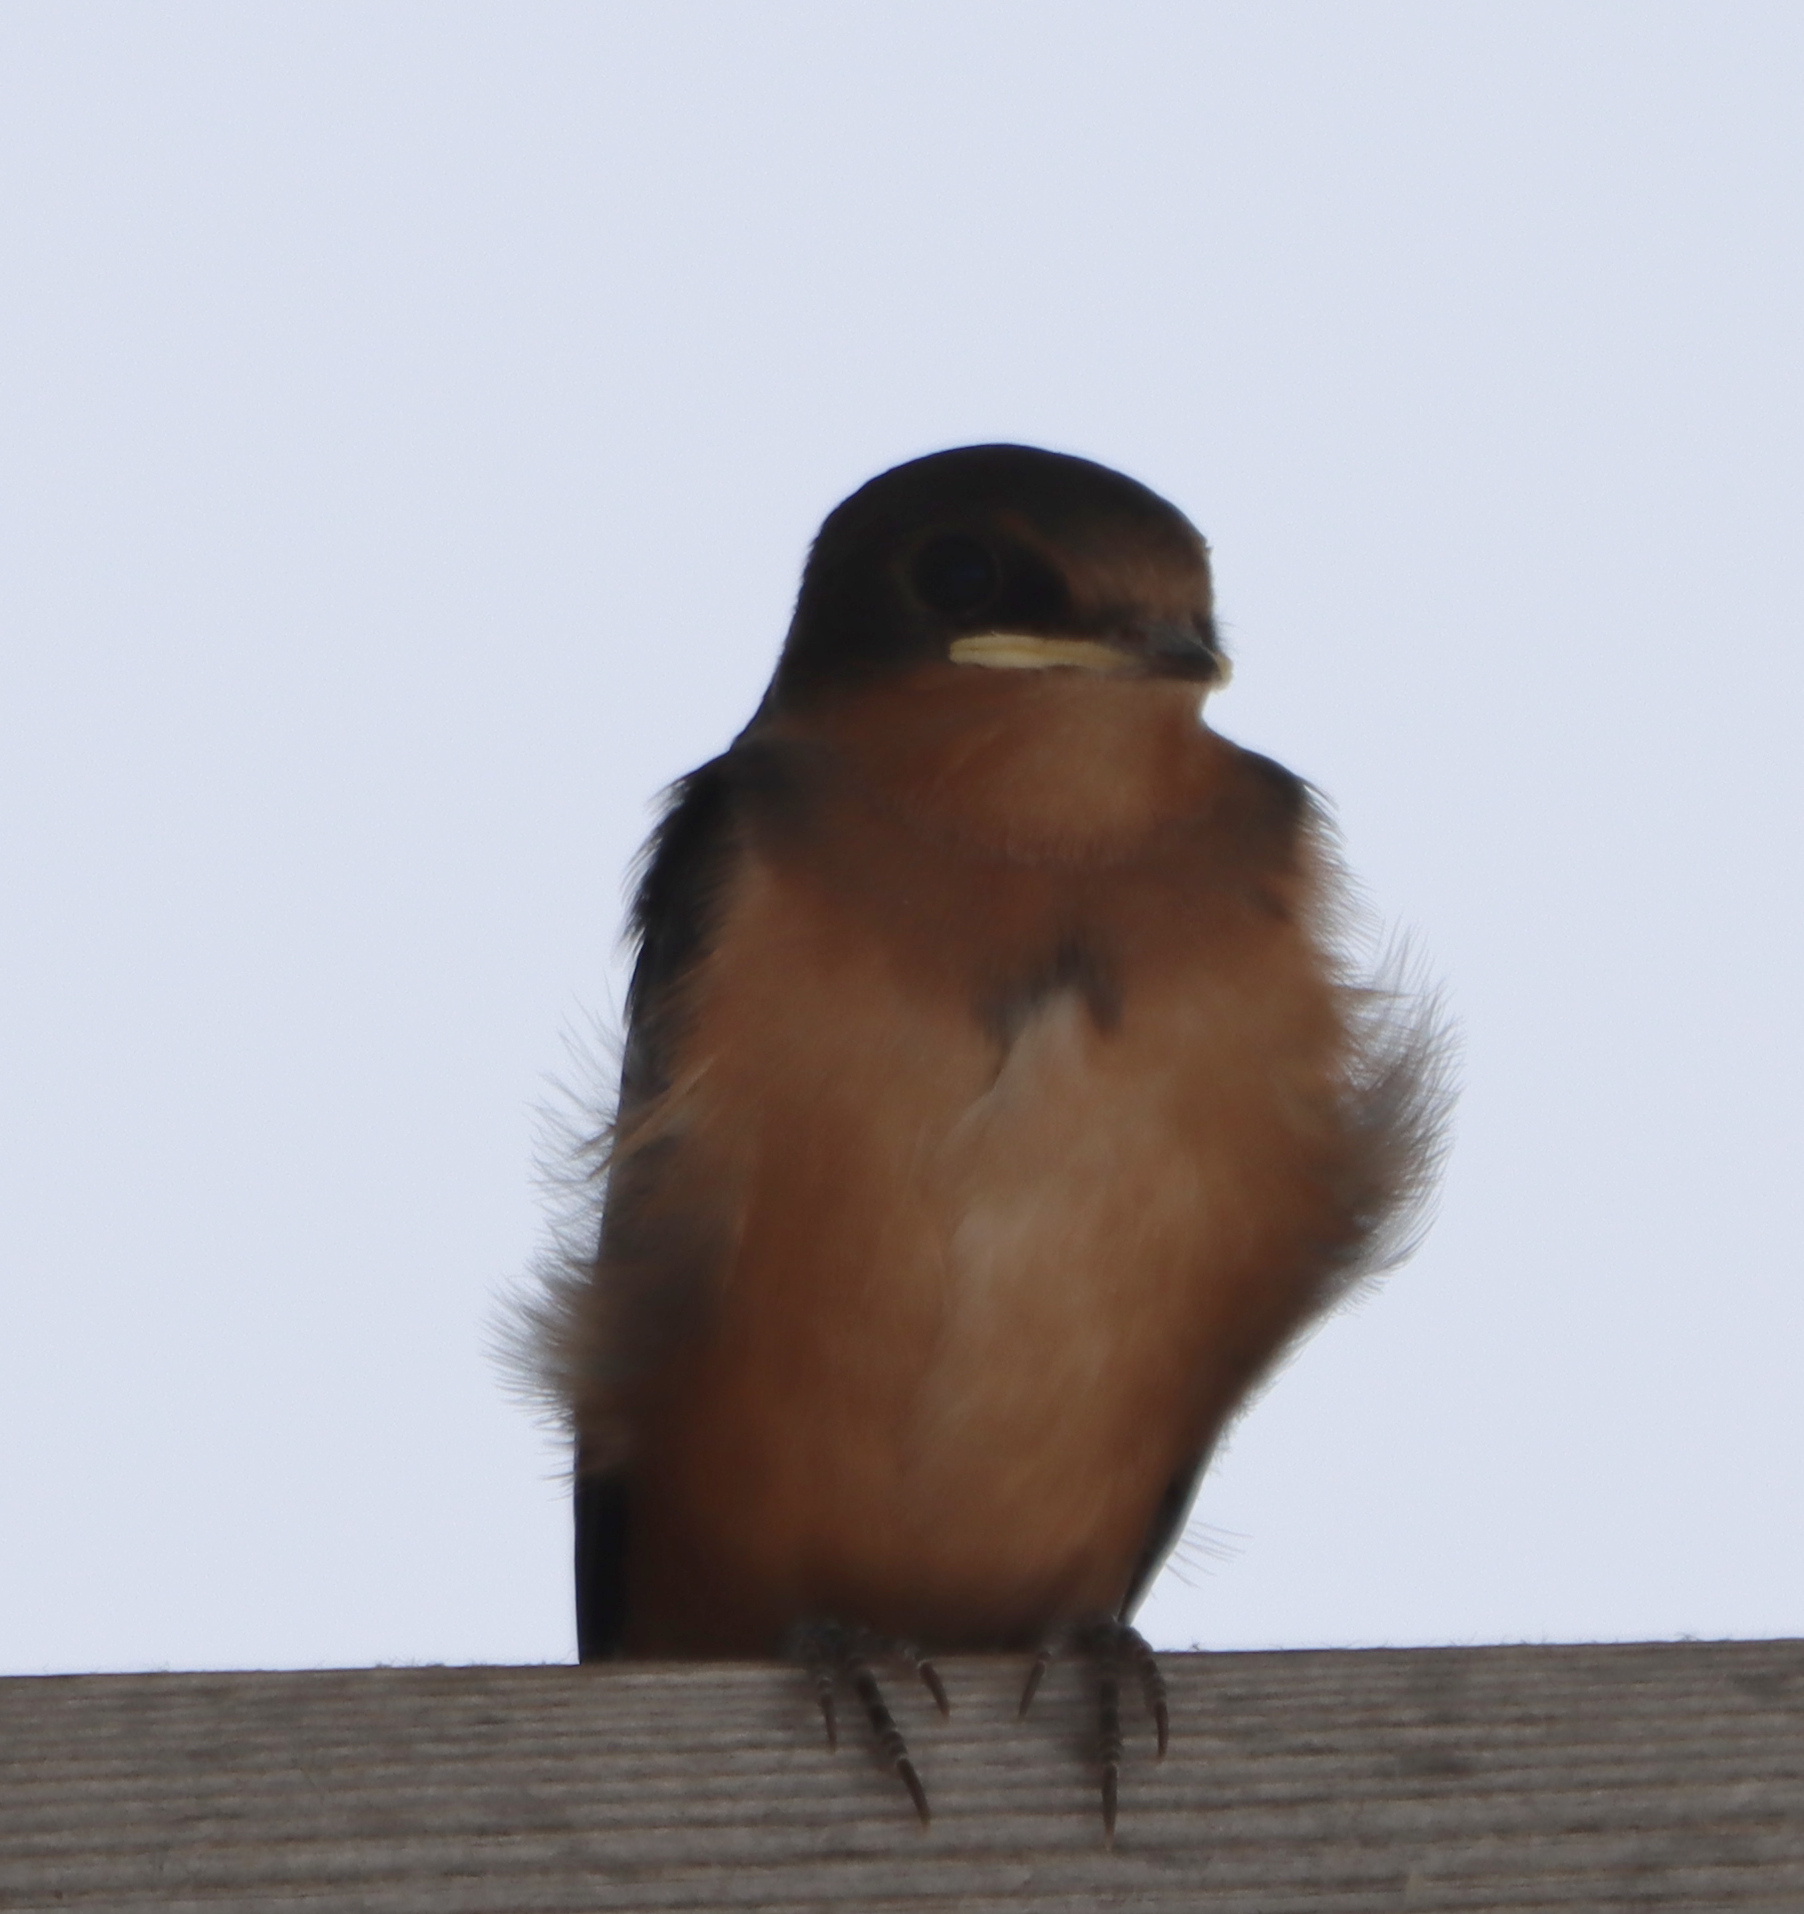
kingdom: Animalia
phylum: Chordata
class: Aves
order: Passeriformes
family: Hirundinidae
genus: Hirundo
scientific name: Hirundo rustica
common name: Barn swallow
